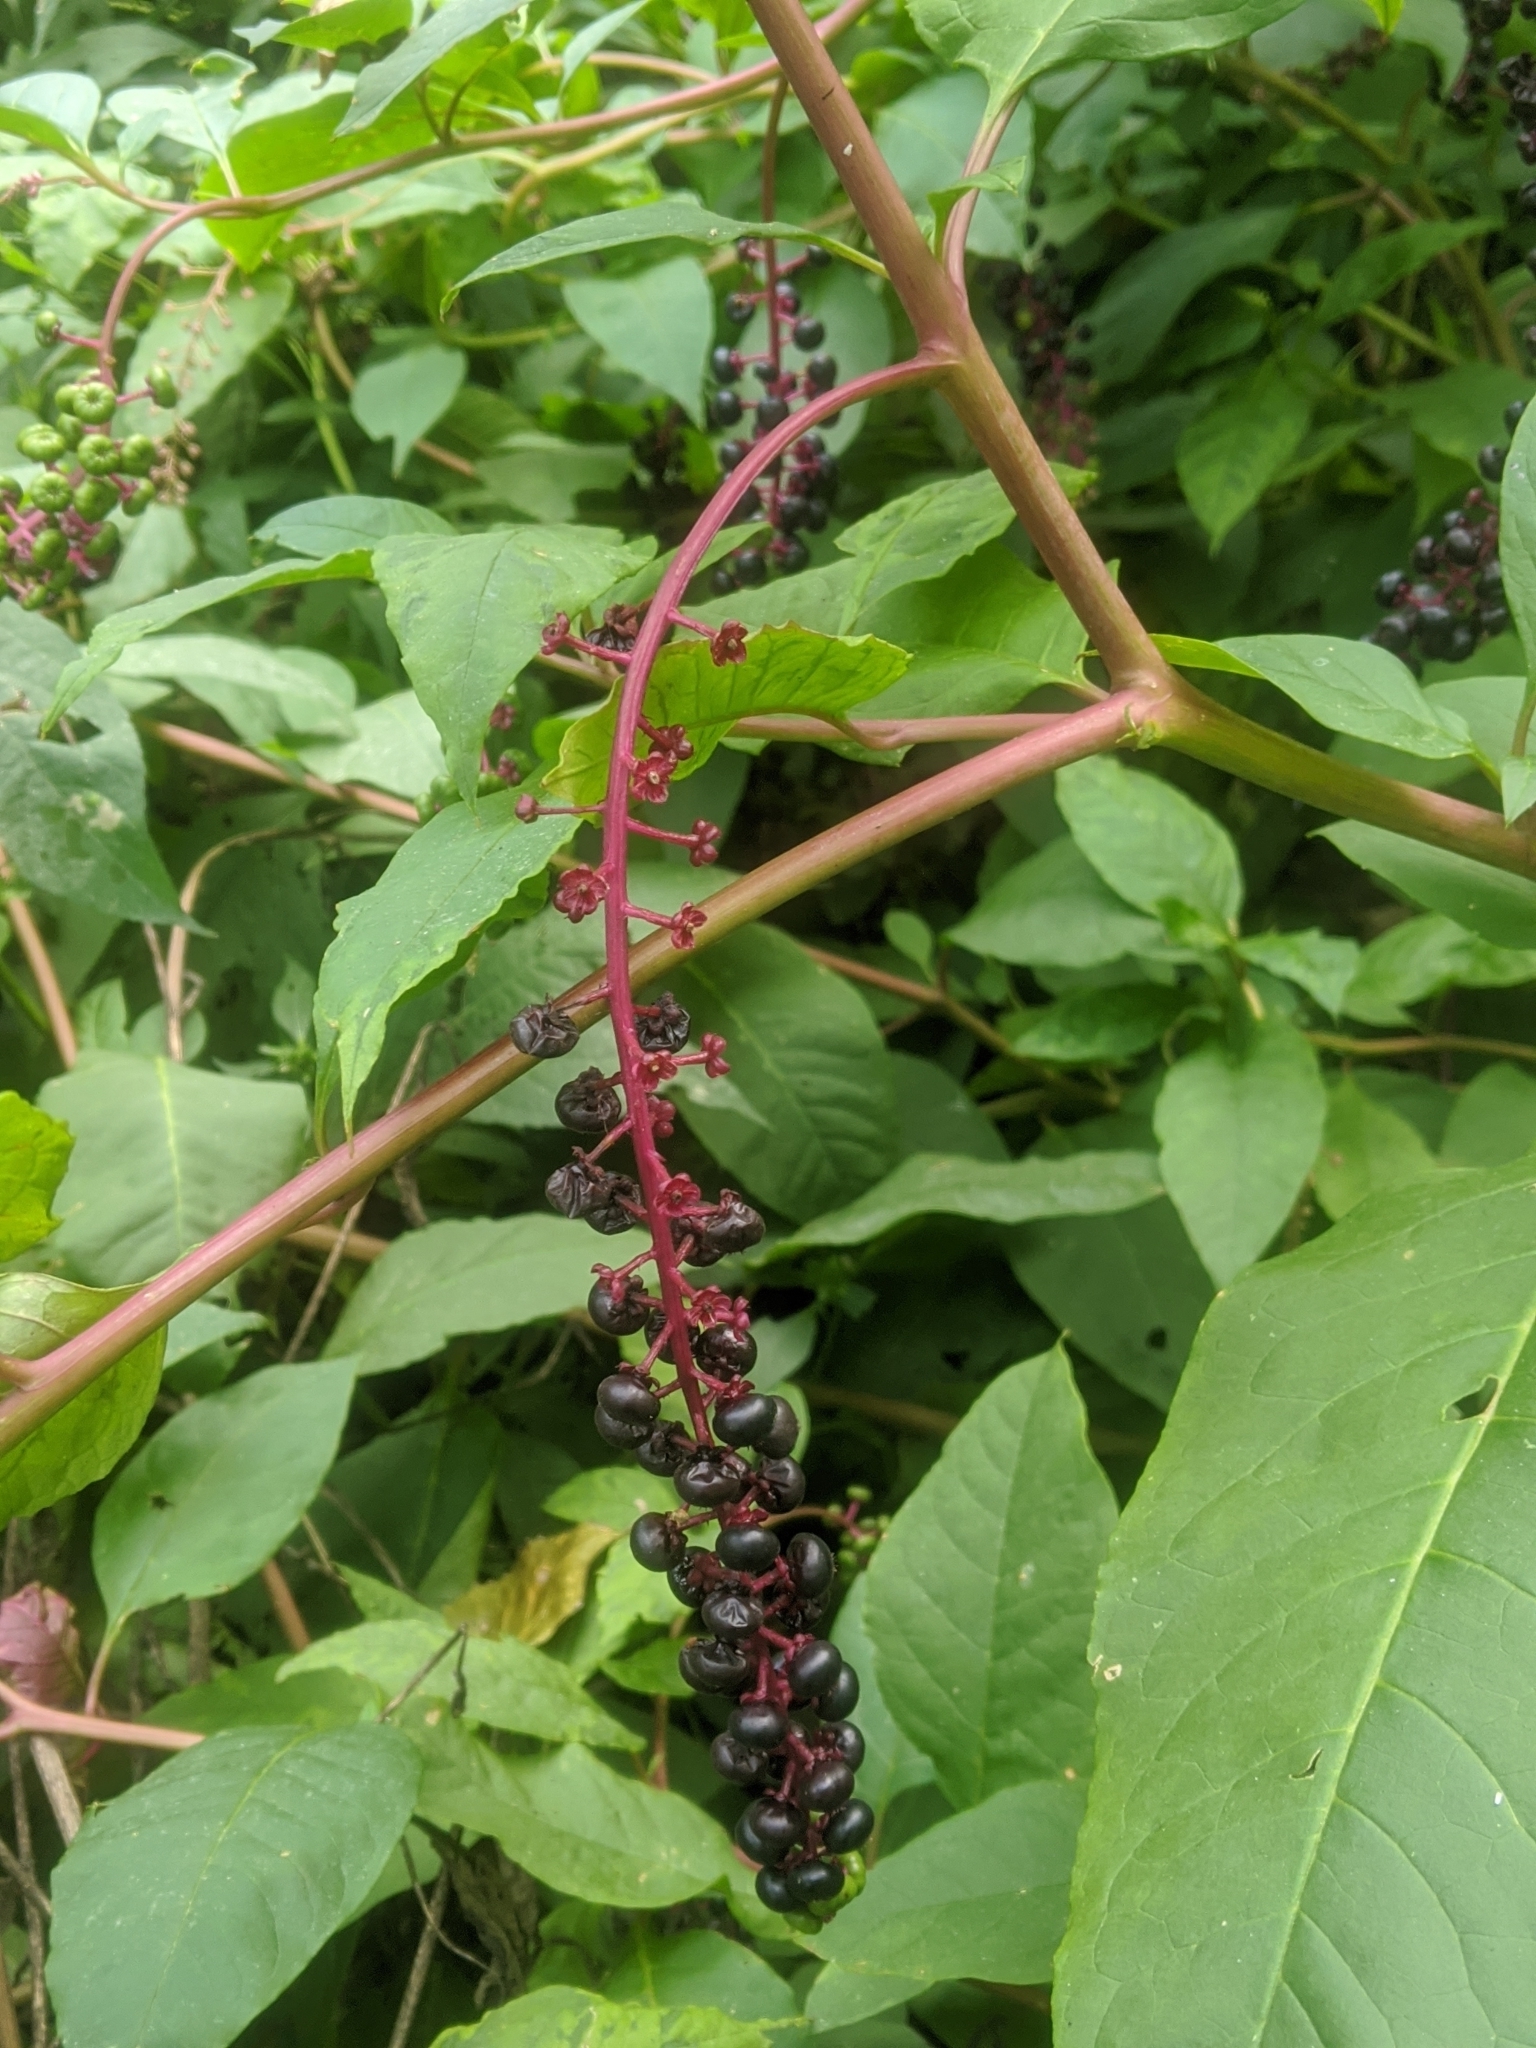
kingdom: Plantae
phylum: Tracheophyta
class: Magnoliopsida
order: Caryophyllales
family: Phytolaccaceae
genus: Phytolacca
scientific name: Phytolacca americana
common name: American pokeweed
